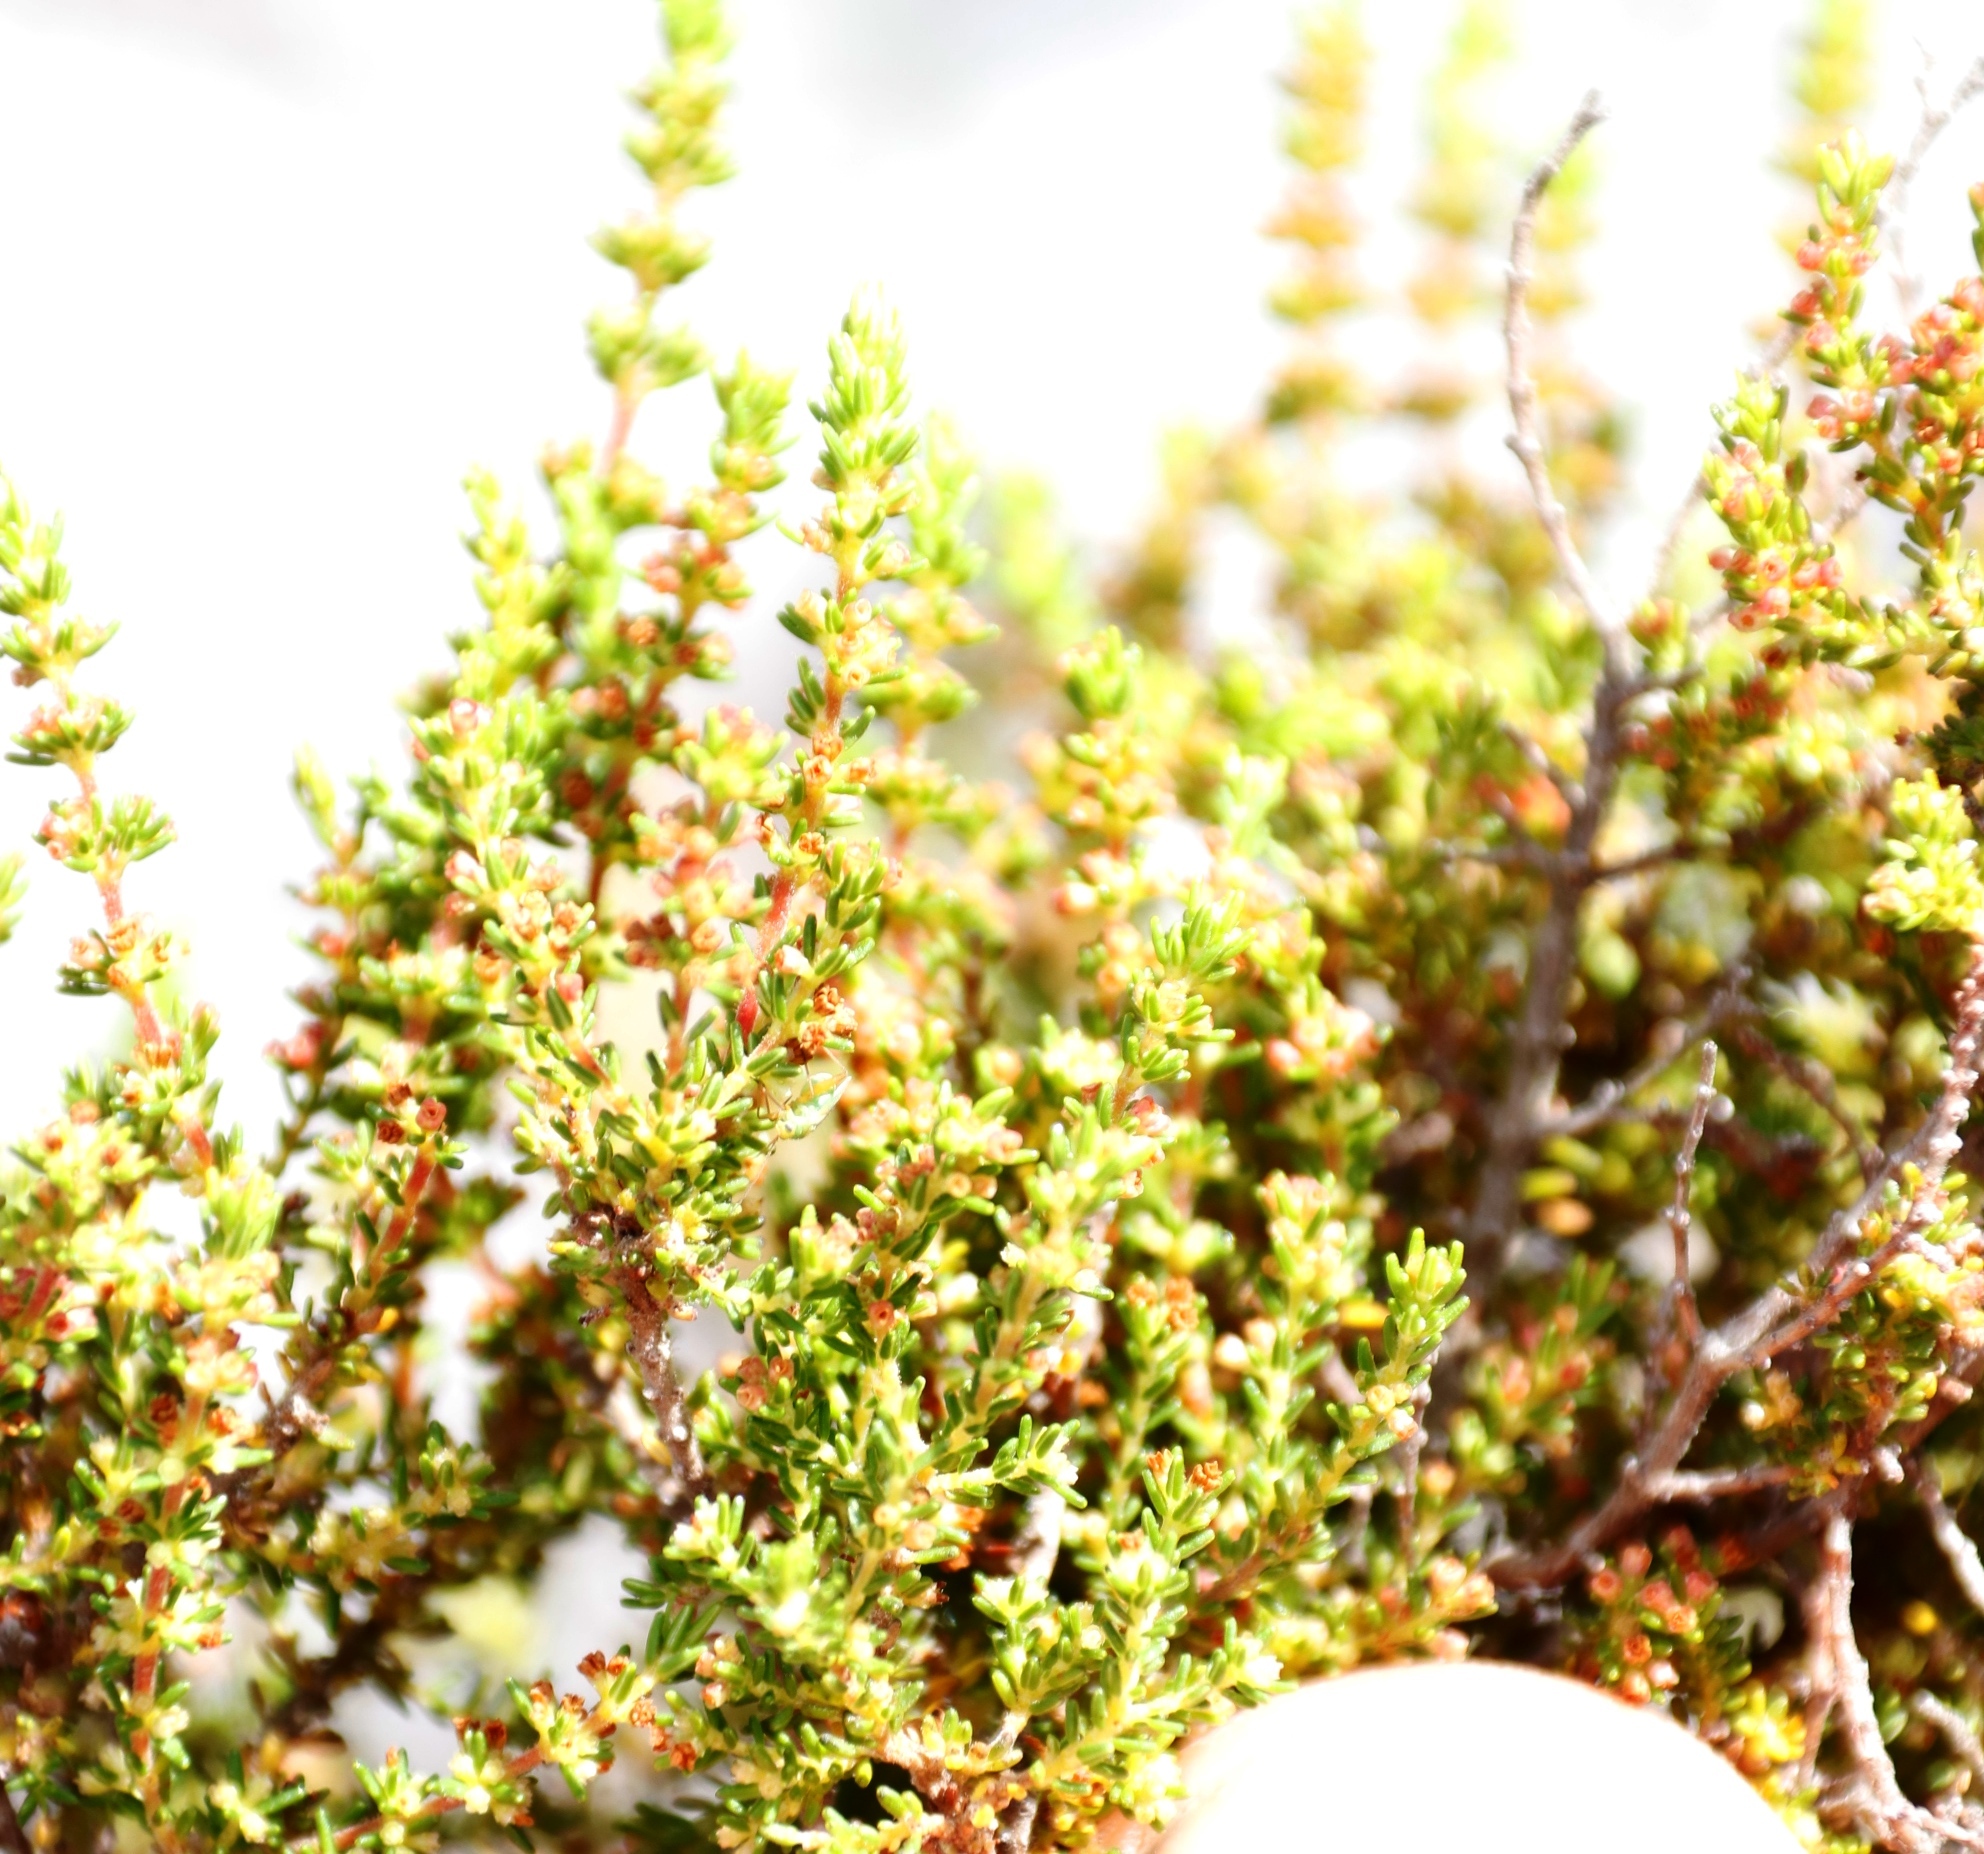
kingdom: Plantae
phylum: Tracheophyta
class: Magnoliopsida
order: Ericales
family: Ericaceae
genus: Erica
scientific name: Erica muscosa
